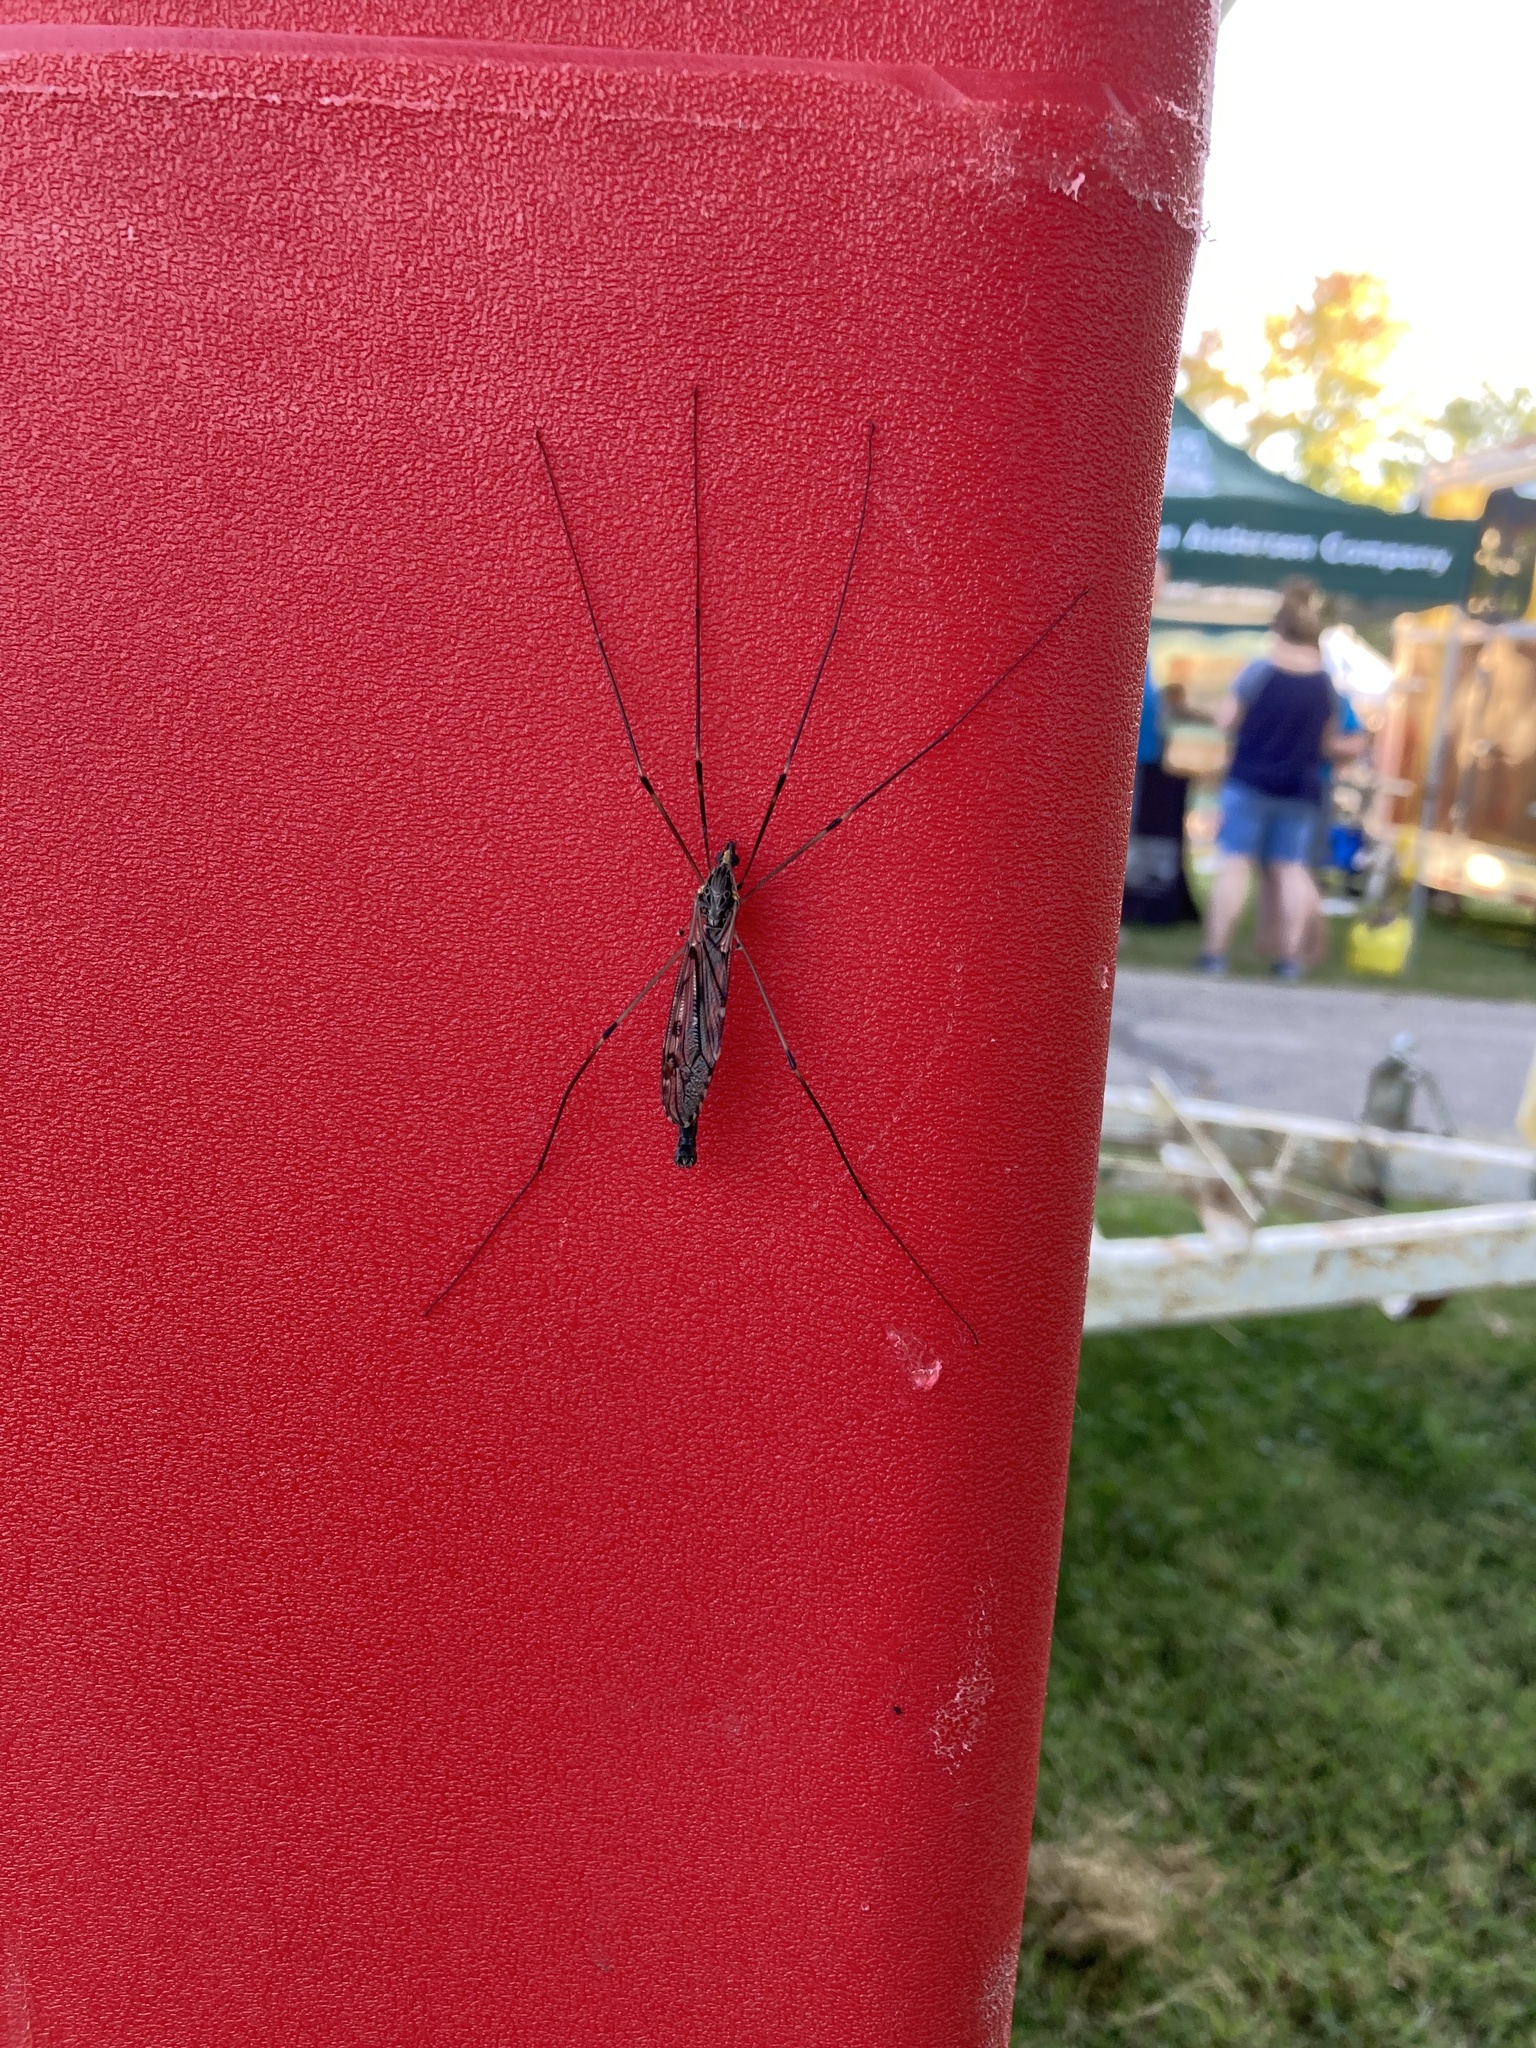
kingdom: Animalia
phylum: Arthropoda
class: Insecta
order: Diptera
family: Tipulidae
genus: Tipula
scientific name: Tipula abdominalis
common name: Giant crane fly
